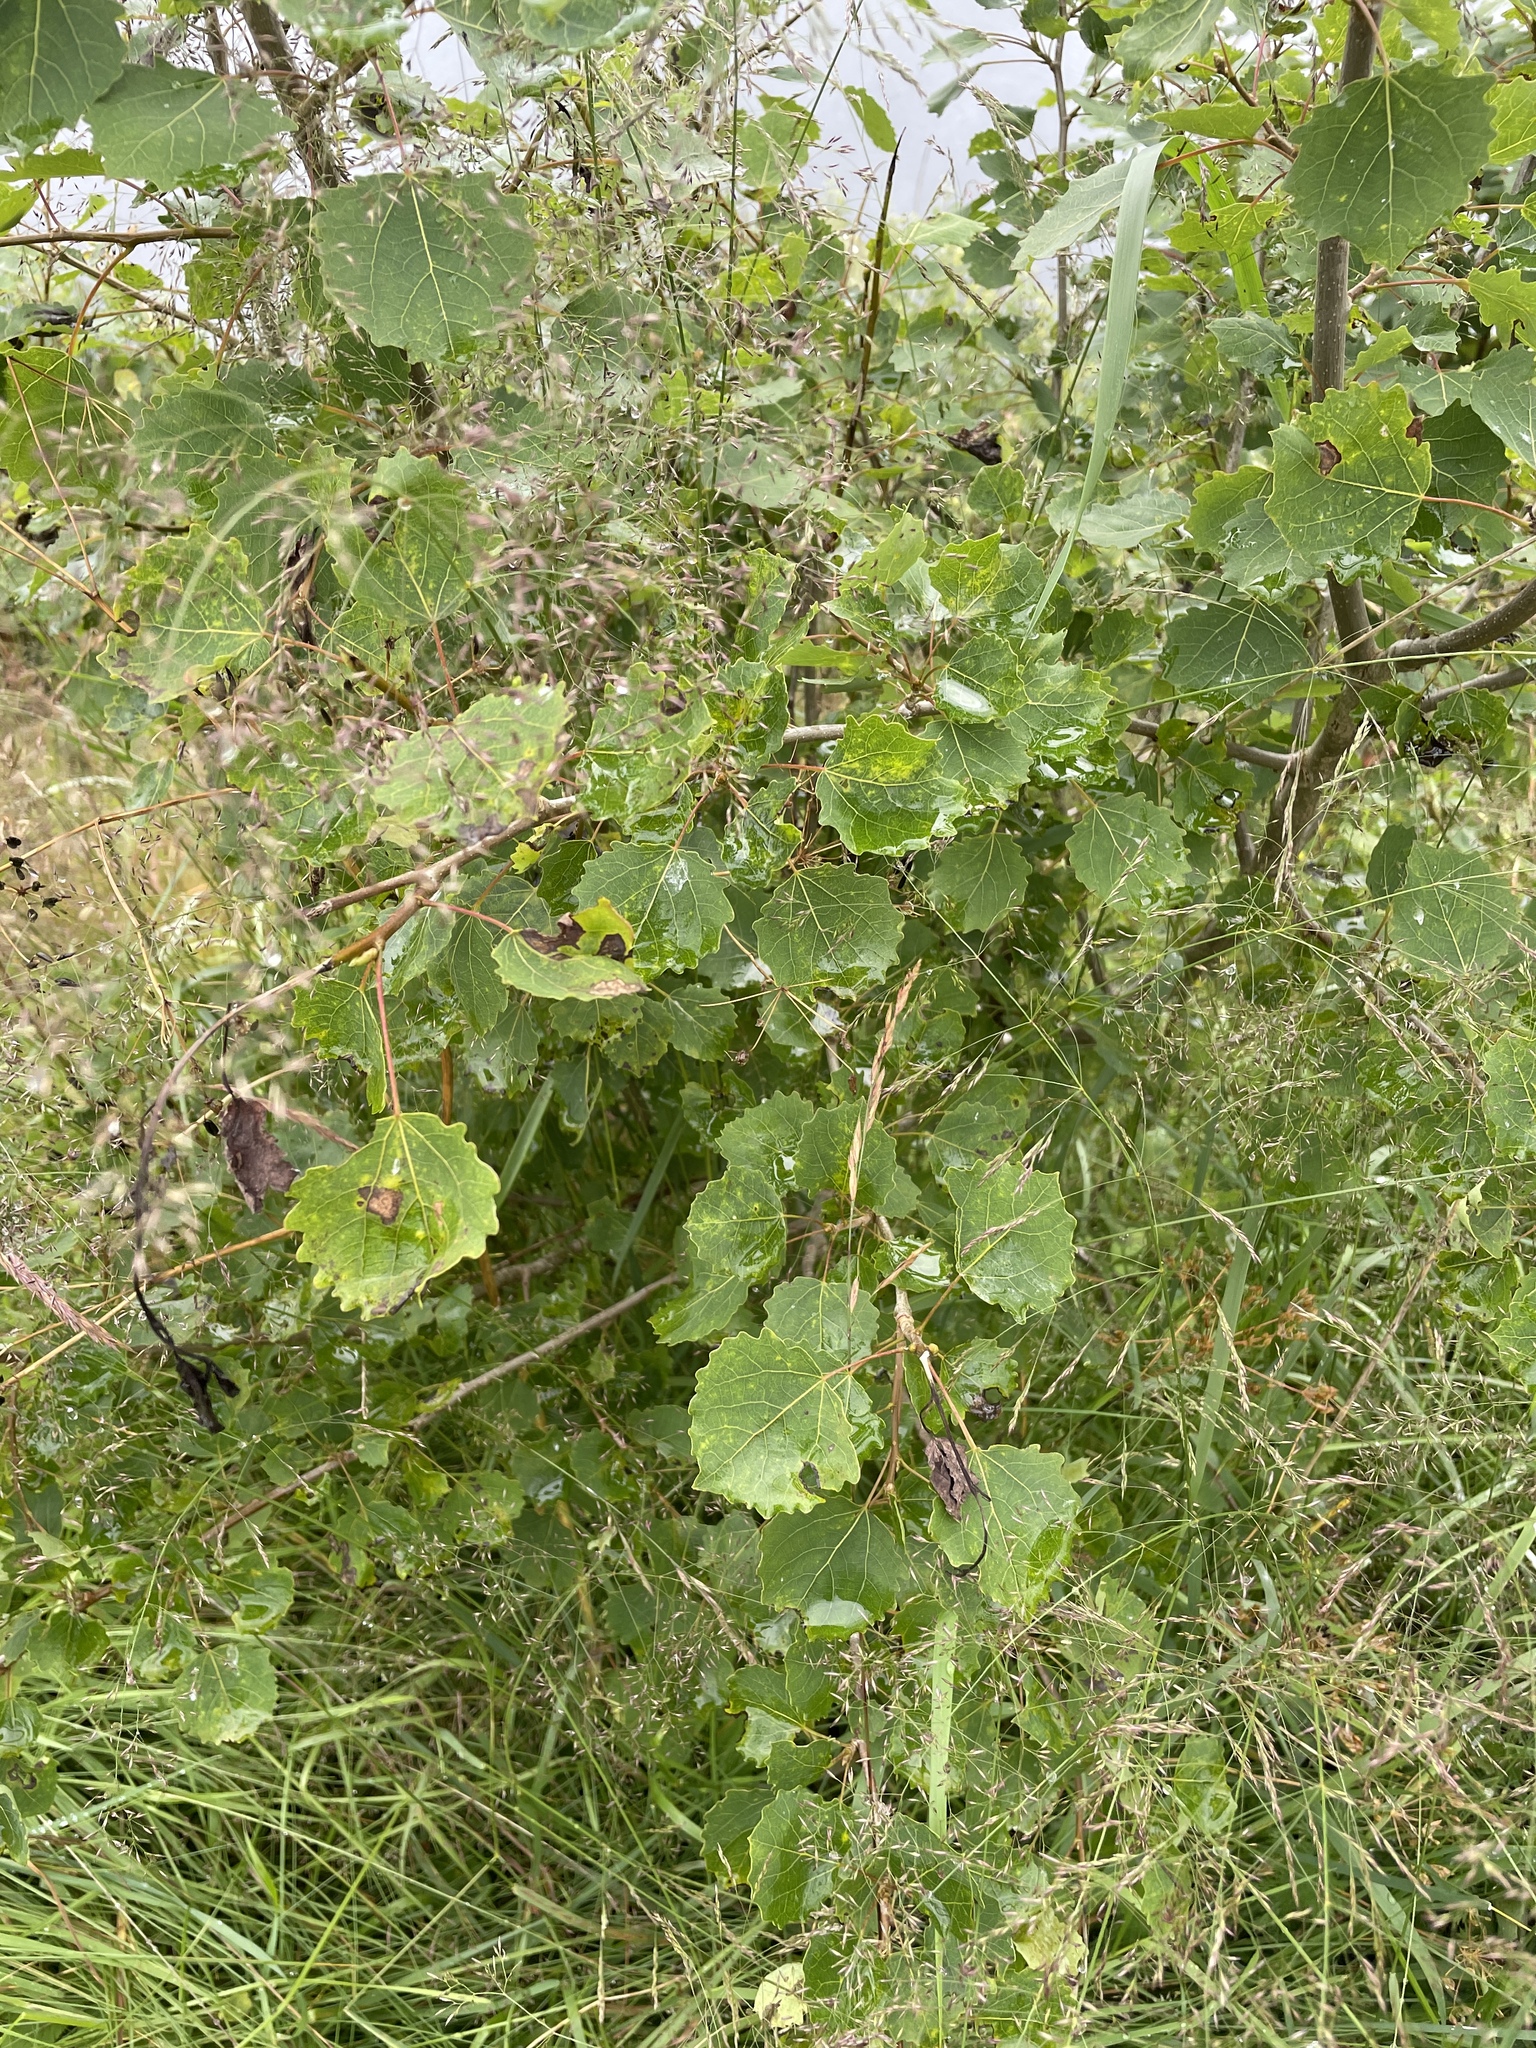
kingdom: Plantae
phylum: Tracheophyta
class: Magnoliopsida
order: Malpighiales
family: Salicaceae
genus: Populus
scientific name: Populus tremula
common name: European aspen
